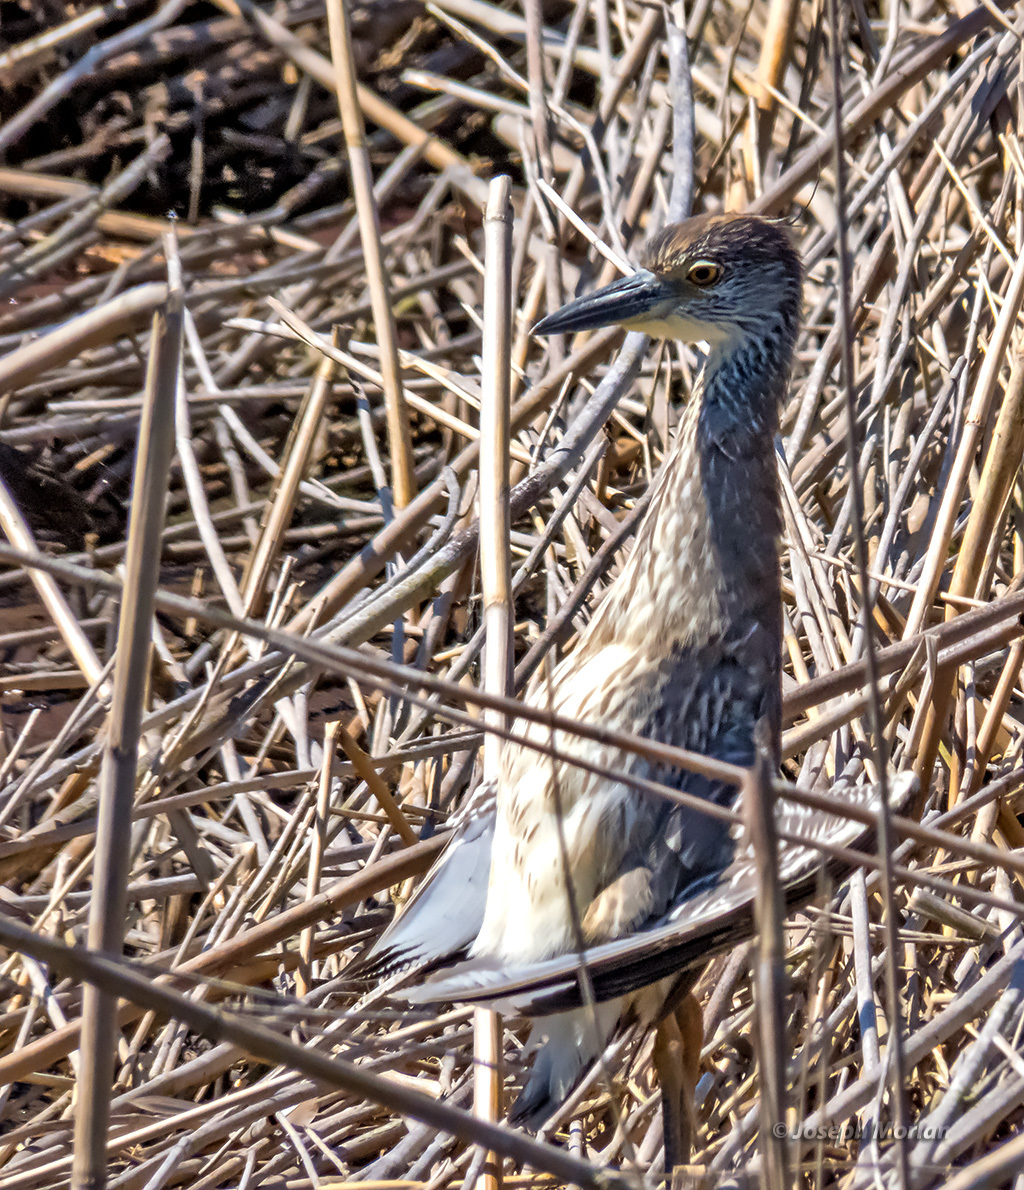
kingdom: Animalia
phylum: Chordata
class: Aves
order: Pelecaniformes
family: Ardeidae
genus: Nyctanassa
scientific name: Nyctanassa violacea
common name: Yellow-crowned night heron
